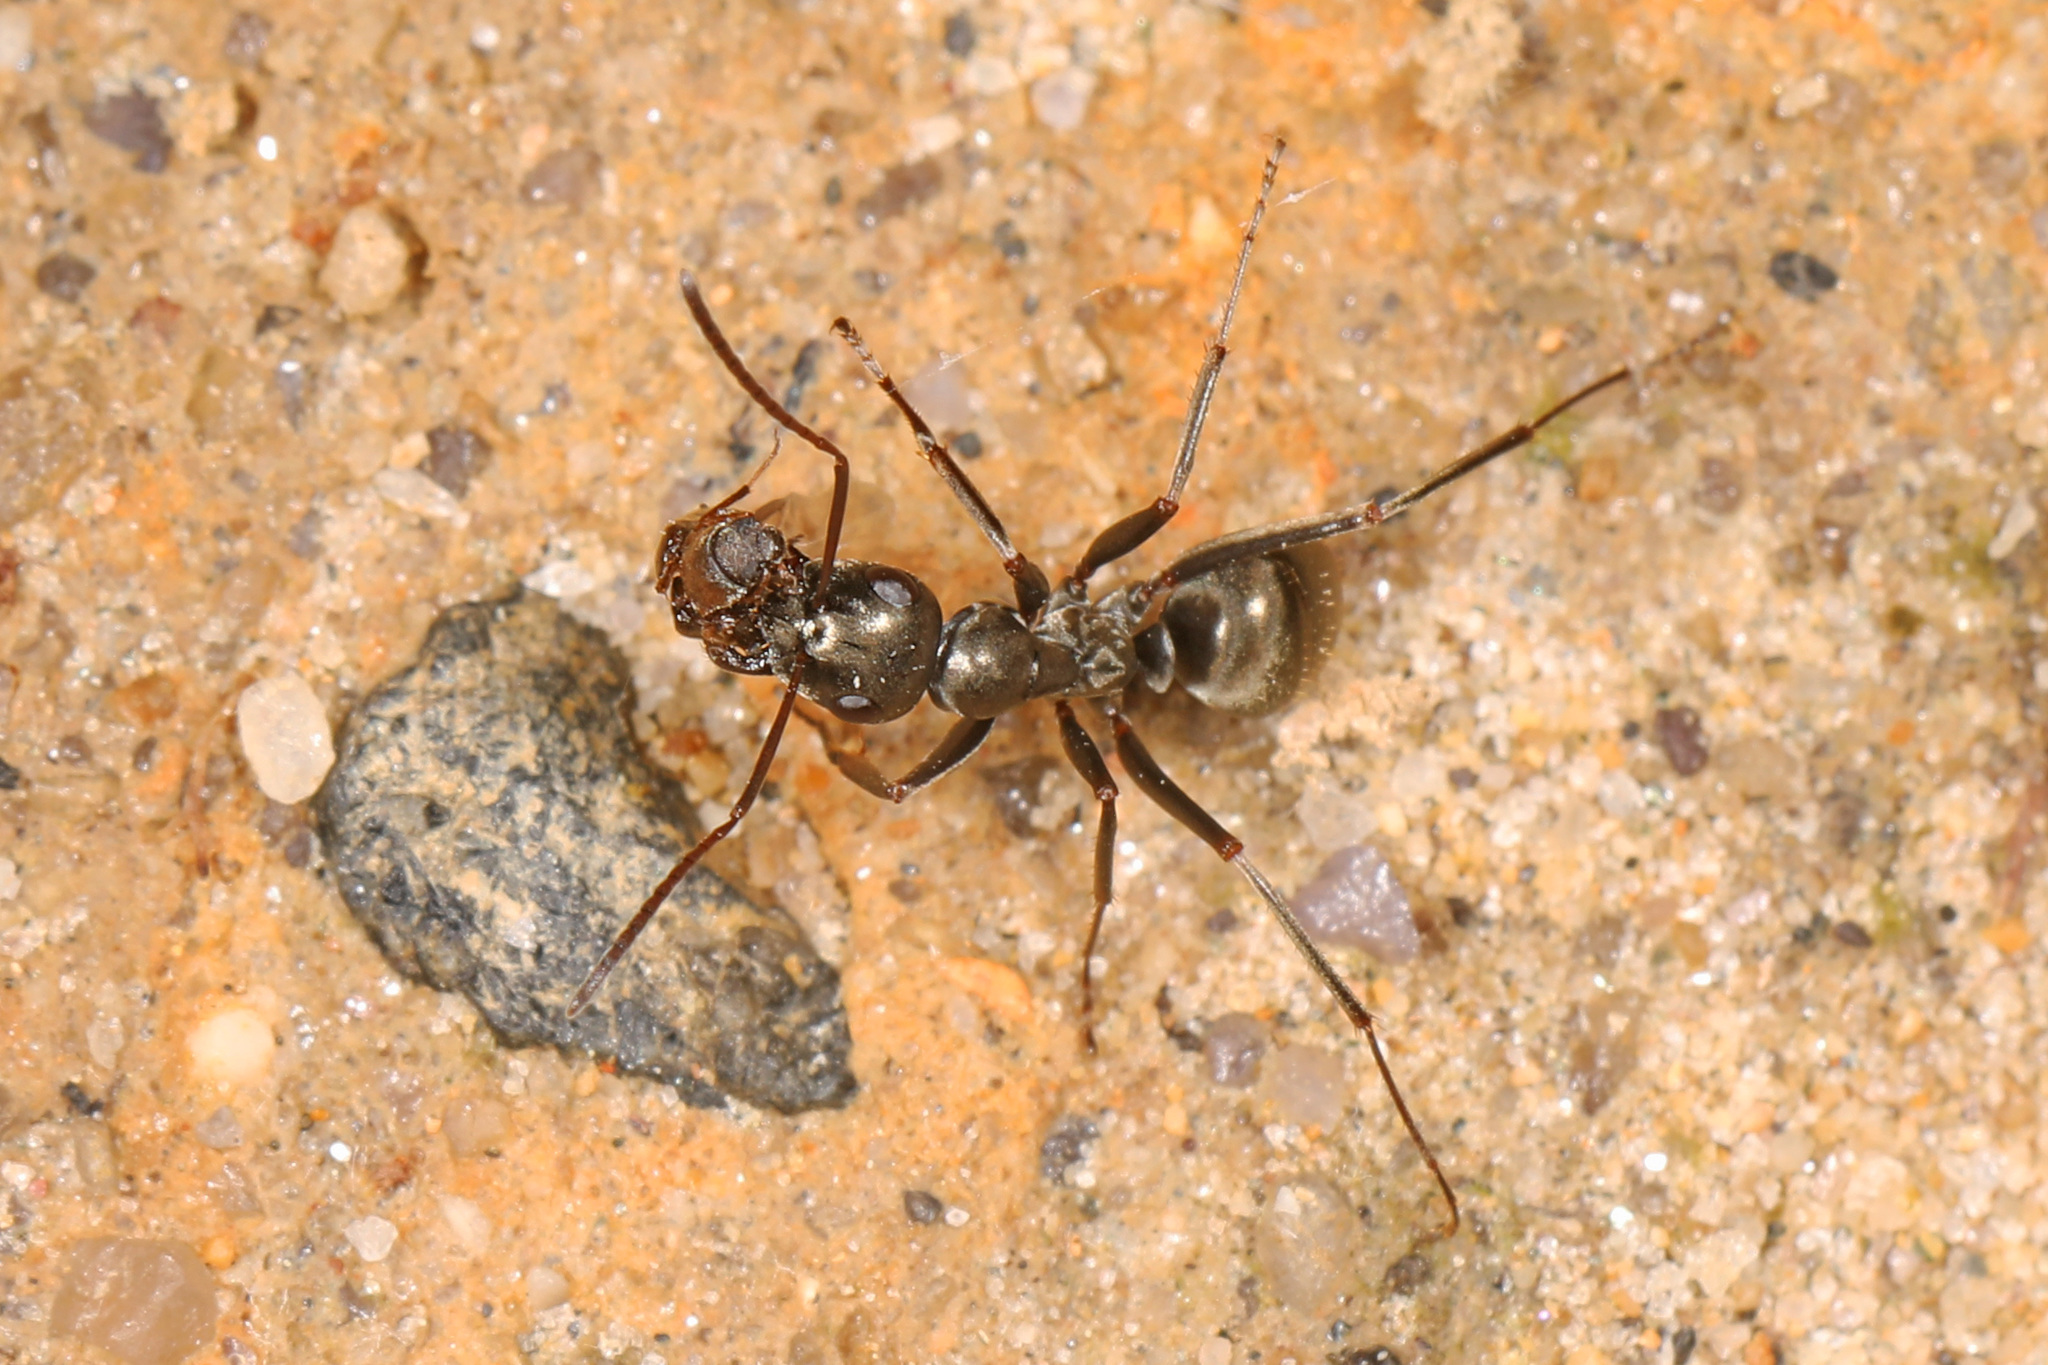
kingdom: Animalia
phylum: Arthropoda
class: Insecta
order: Hymenoptera
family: Formicidae
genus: Formica
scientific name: Formica subsericea
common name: Silky field ant
